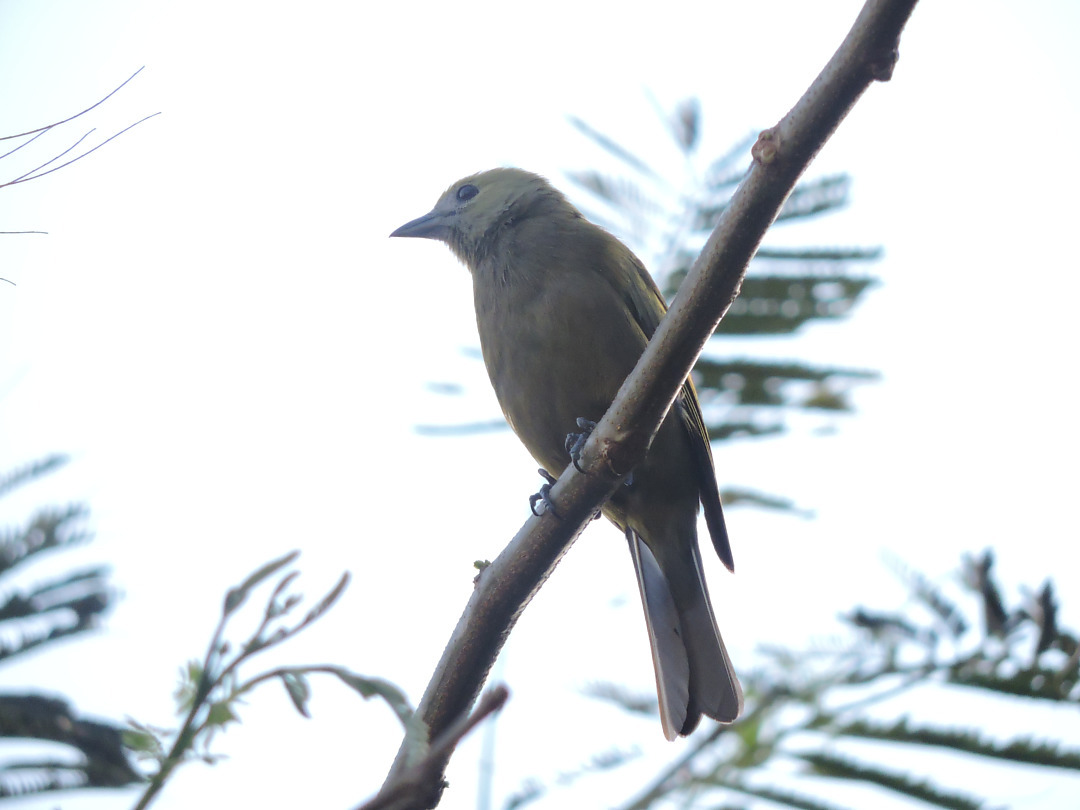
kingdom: Animalia
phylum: Chordata
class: Aves
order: Passeriformes
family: Thraupidae
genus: Thraupis
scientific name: Thraupis palmarum
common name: Palm tanager
